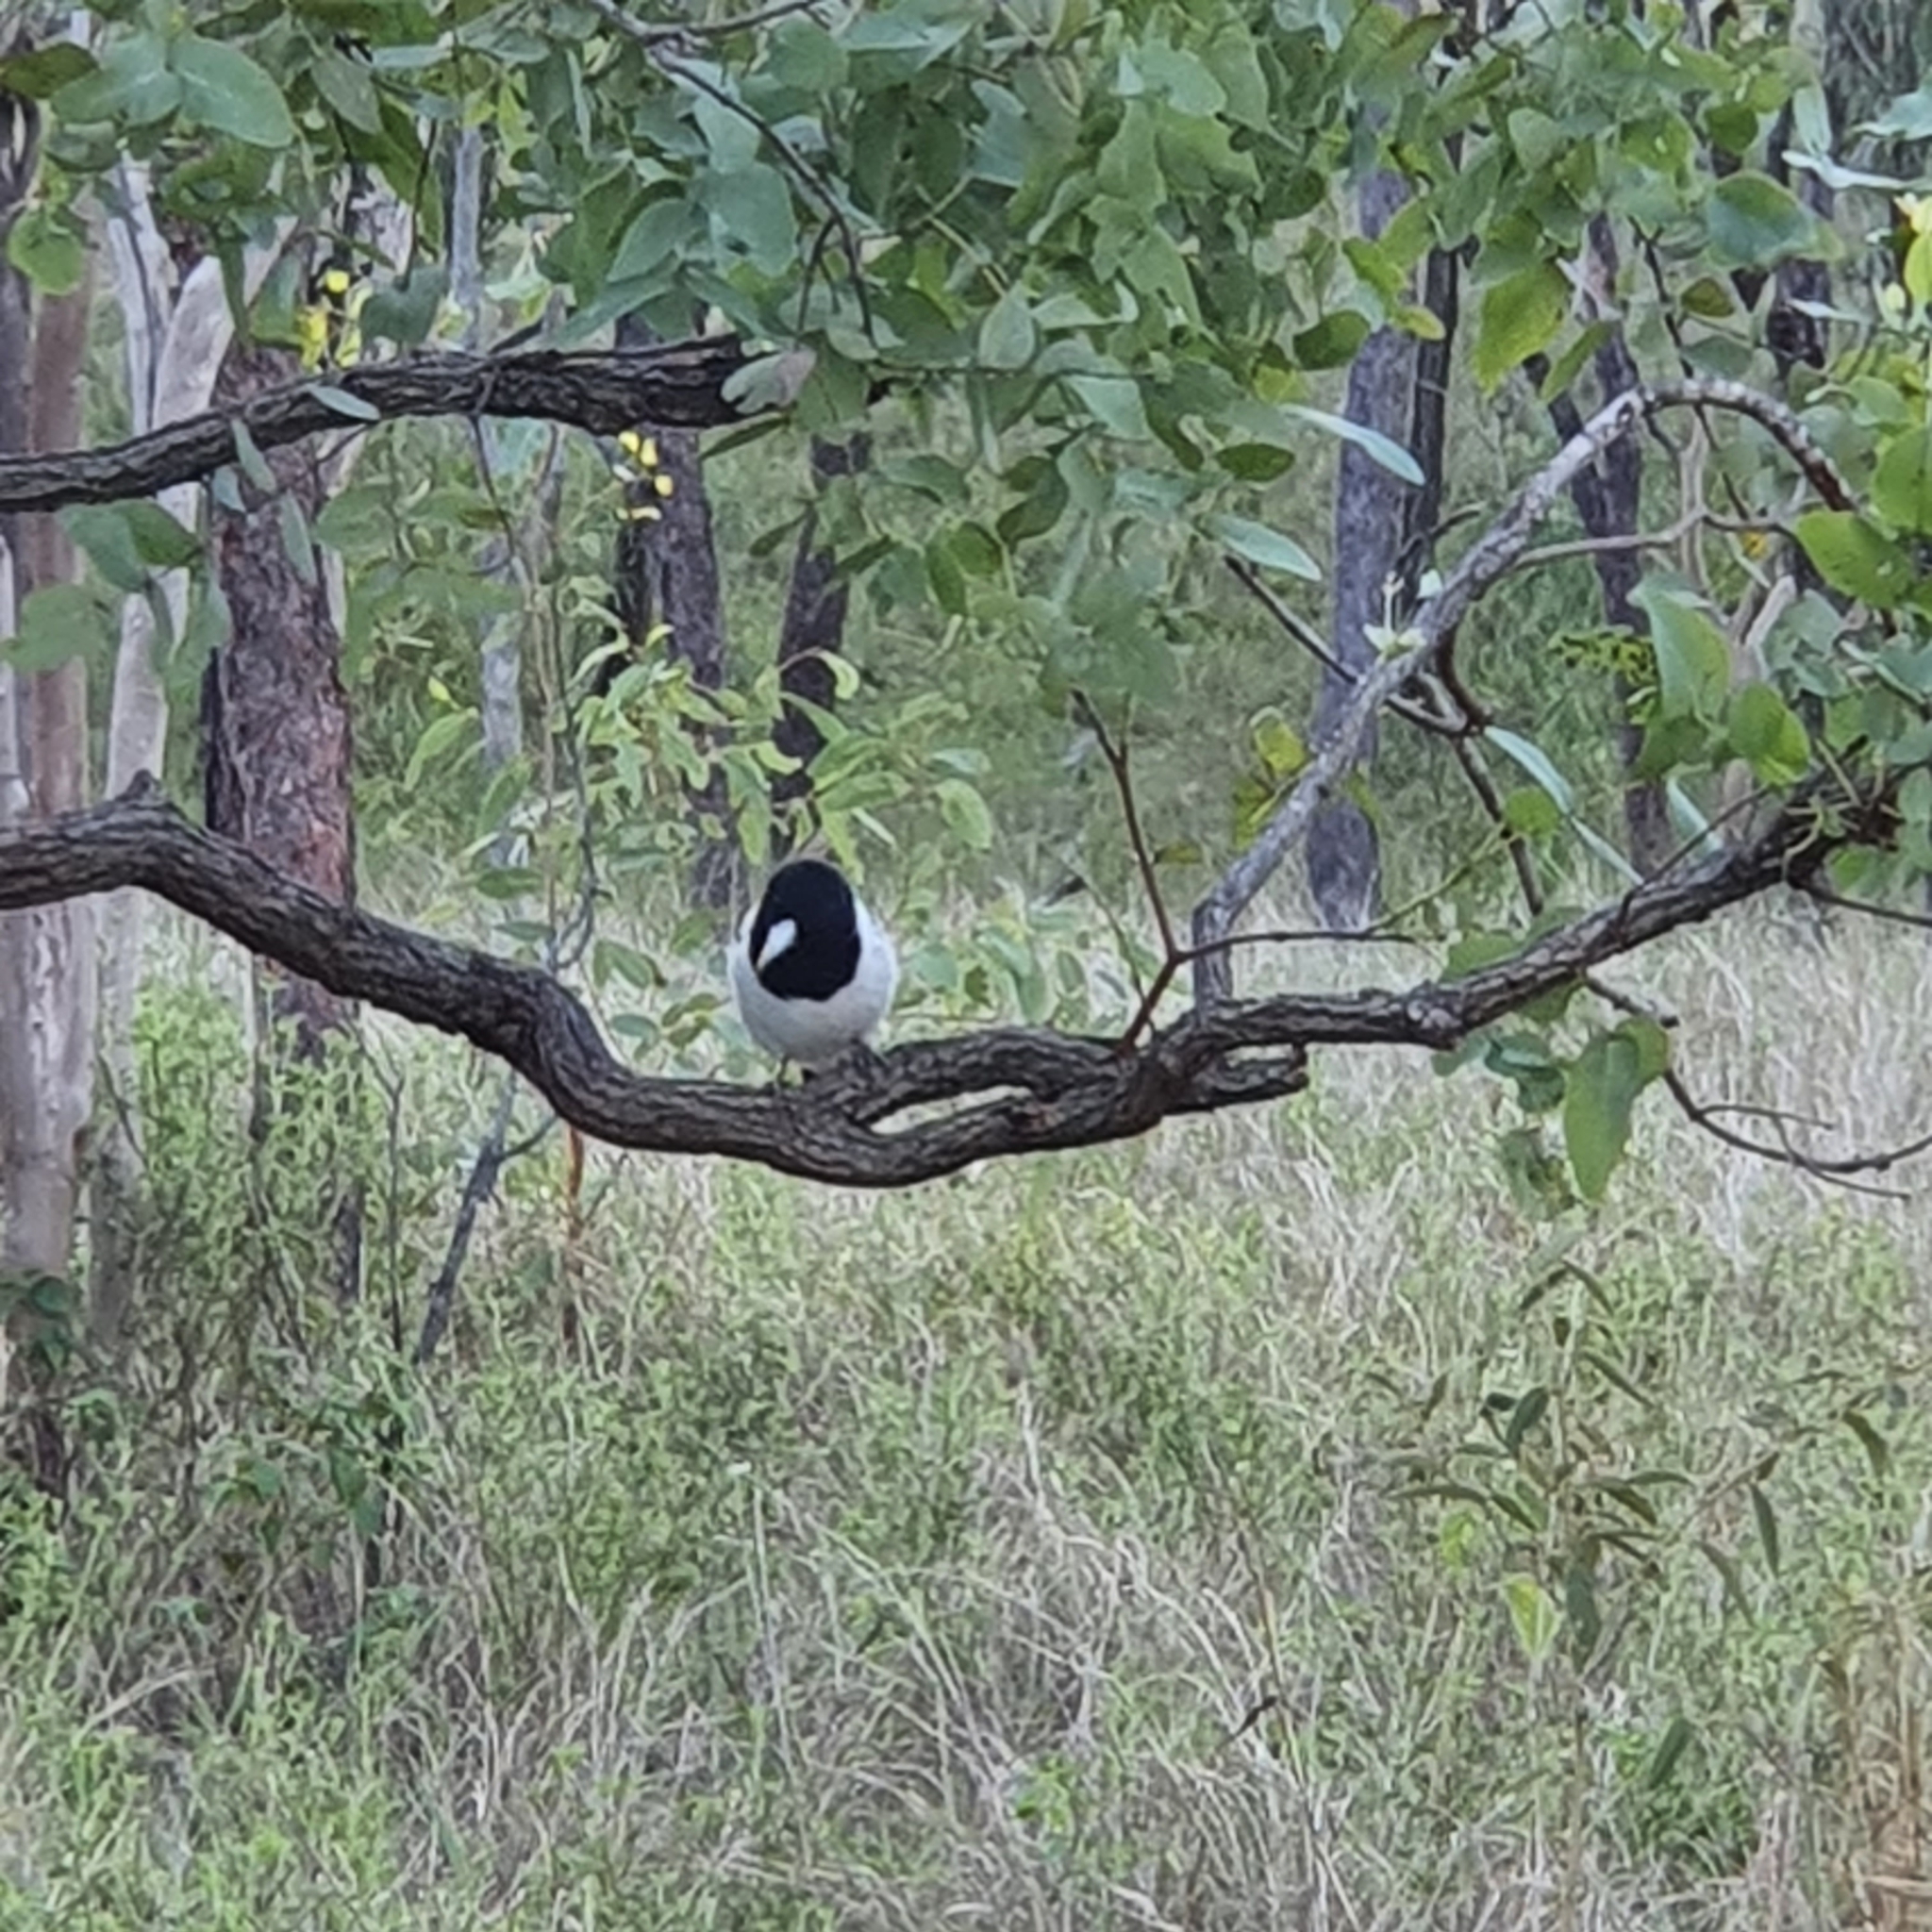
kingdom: Animalia
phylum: Chordata
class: Aves
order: Passeriformes
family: Cracticidae
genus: Cracticus
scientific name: Cracticus nigrogularis
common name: Pied butcherbird
